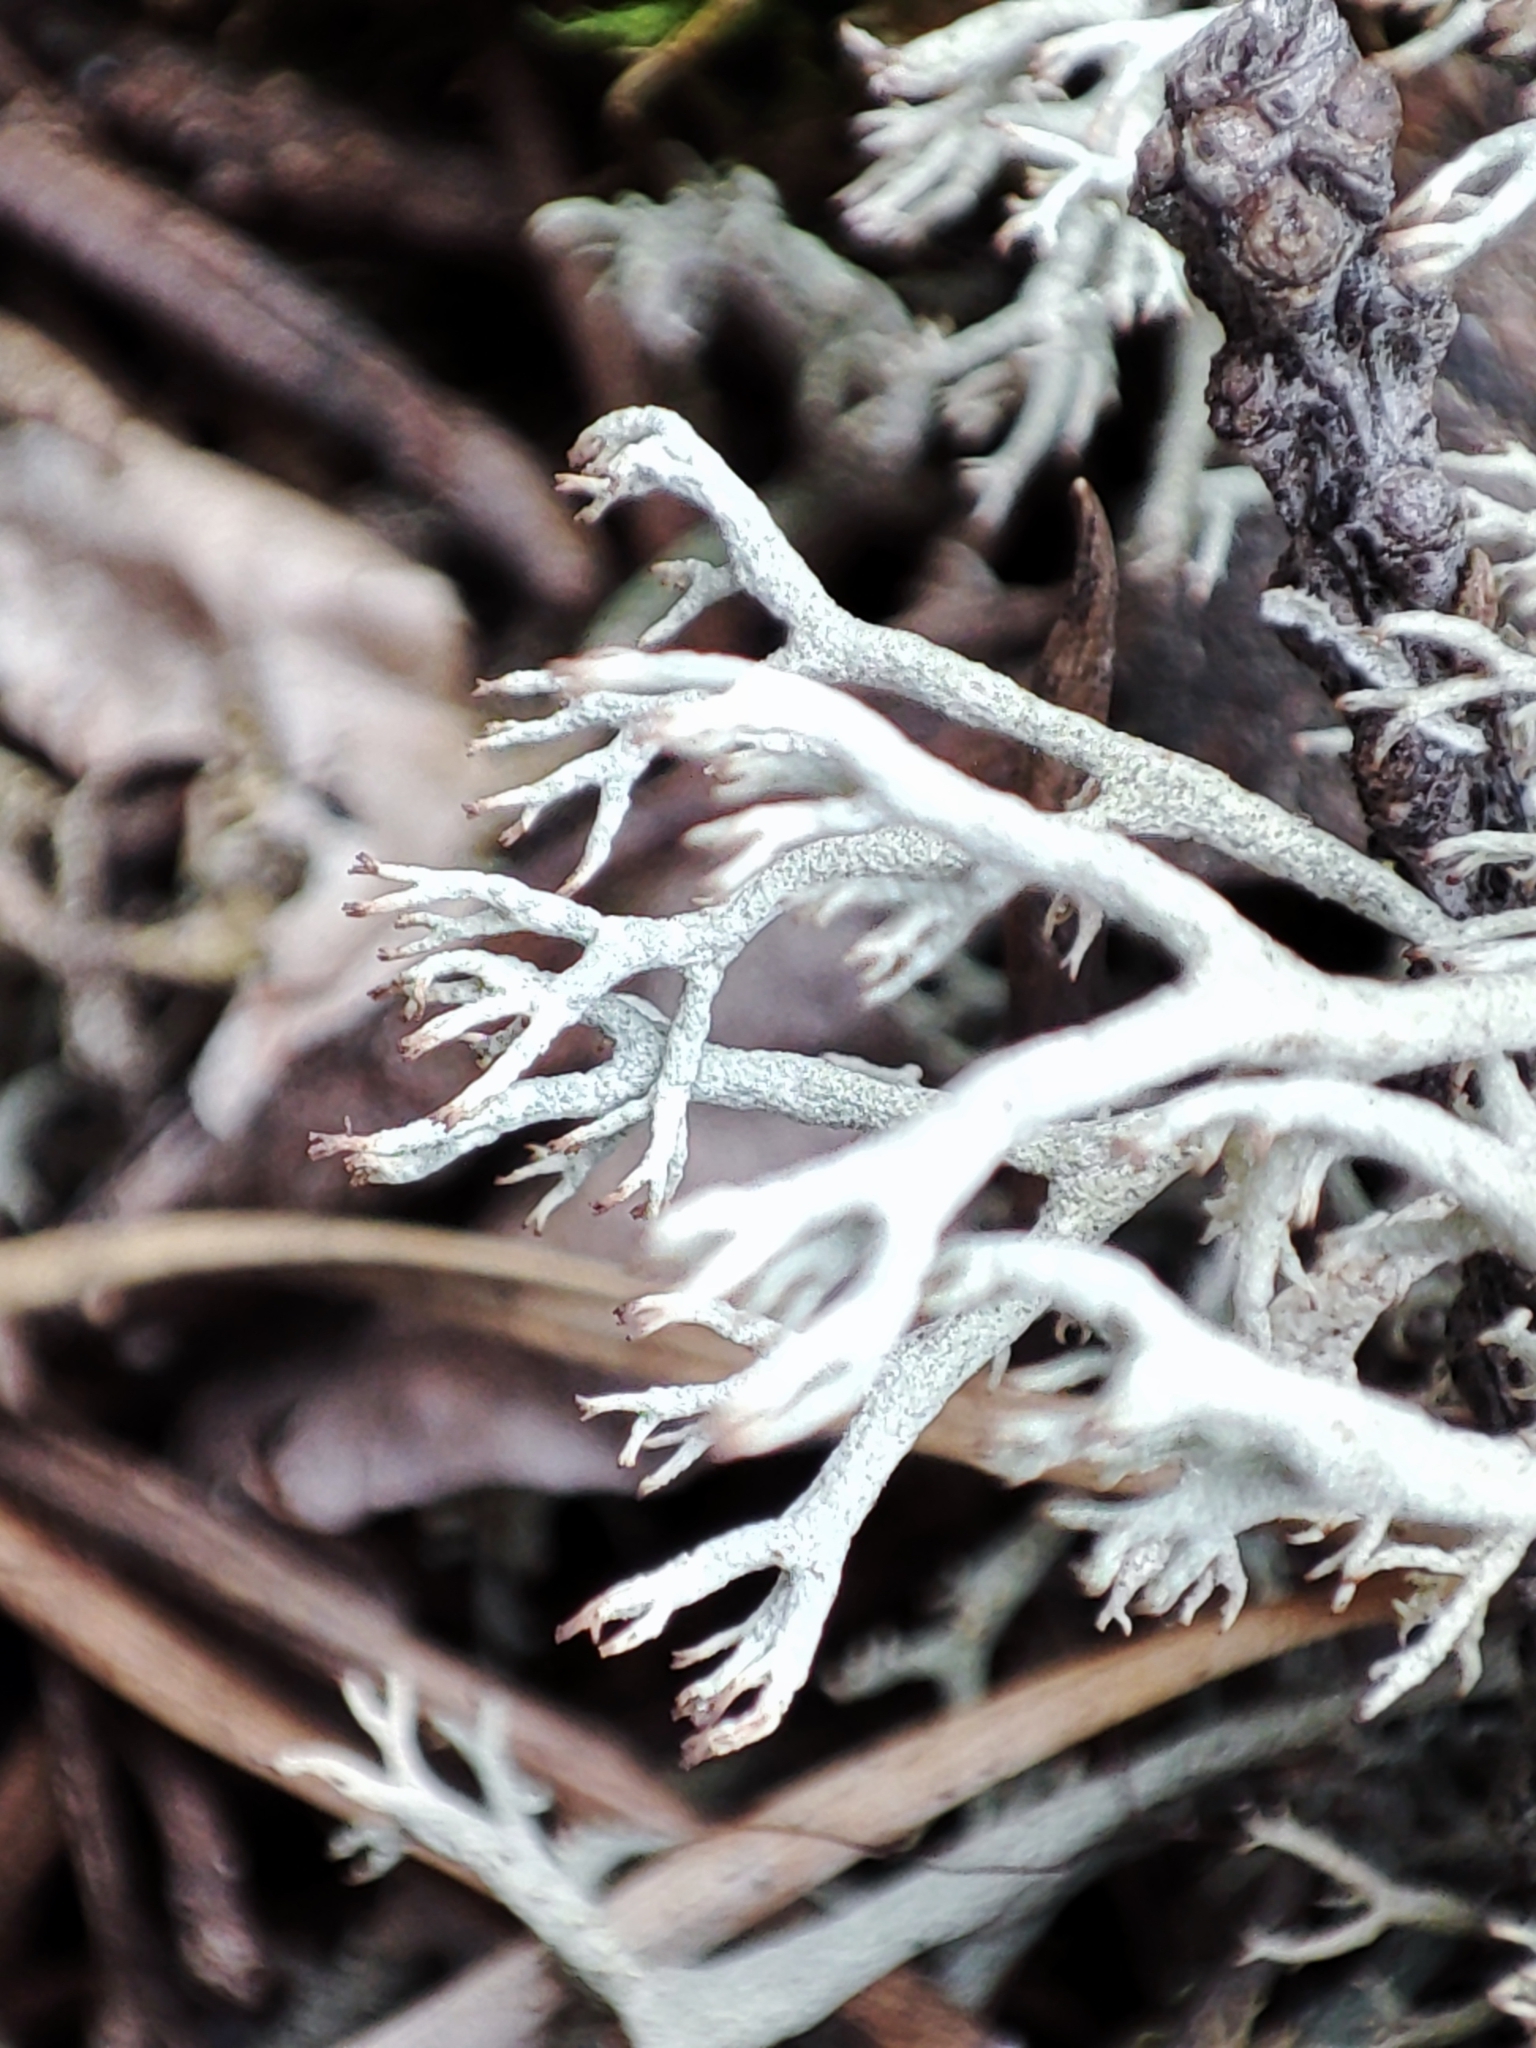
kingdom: Fungi
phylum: Ascomycota
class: Lecanoromycetes
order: Lecanorales
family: Cladoniaceae
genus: Cladonia
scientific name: Cladonia arbuscula
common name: Reindeer lichen
